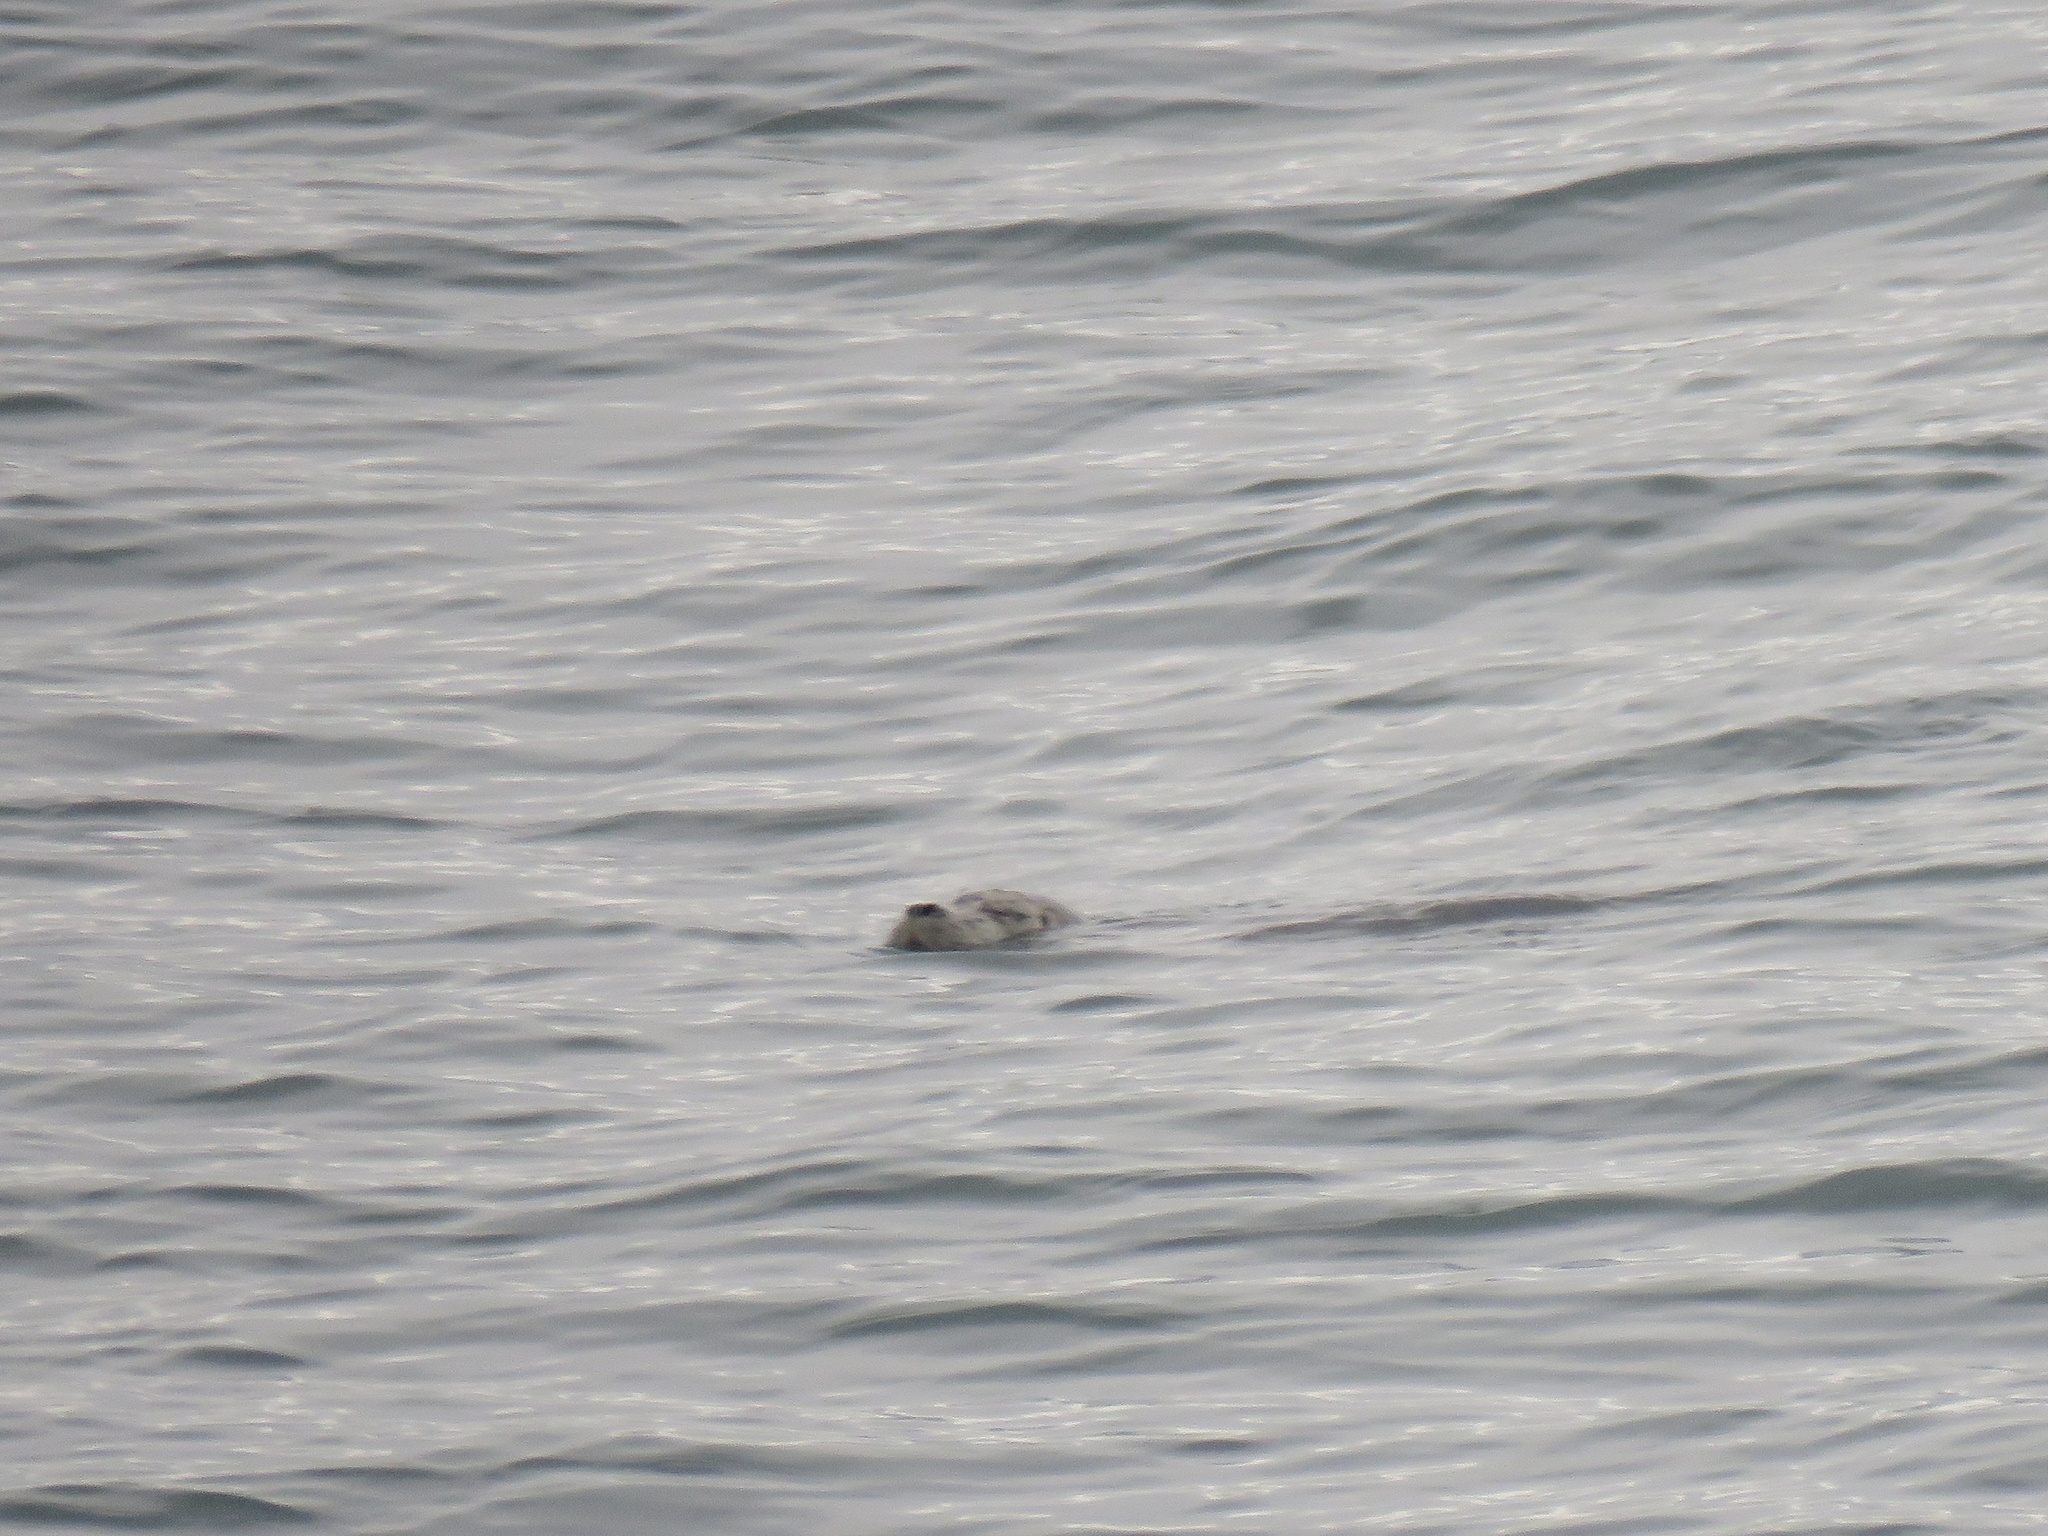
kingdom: Animalia
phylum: Chordata
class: Mammalia
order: Carnivora
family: Phocidae
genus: Phoca
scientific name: Phoca vitulina
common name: Harbor seal
